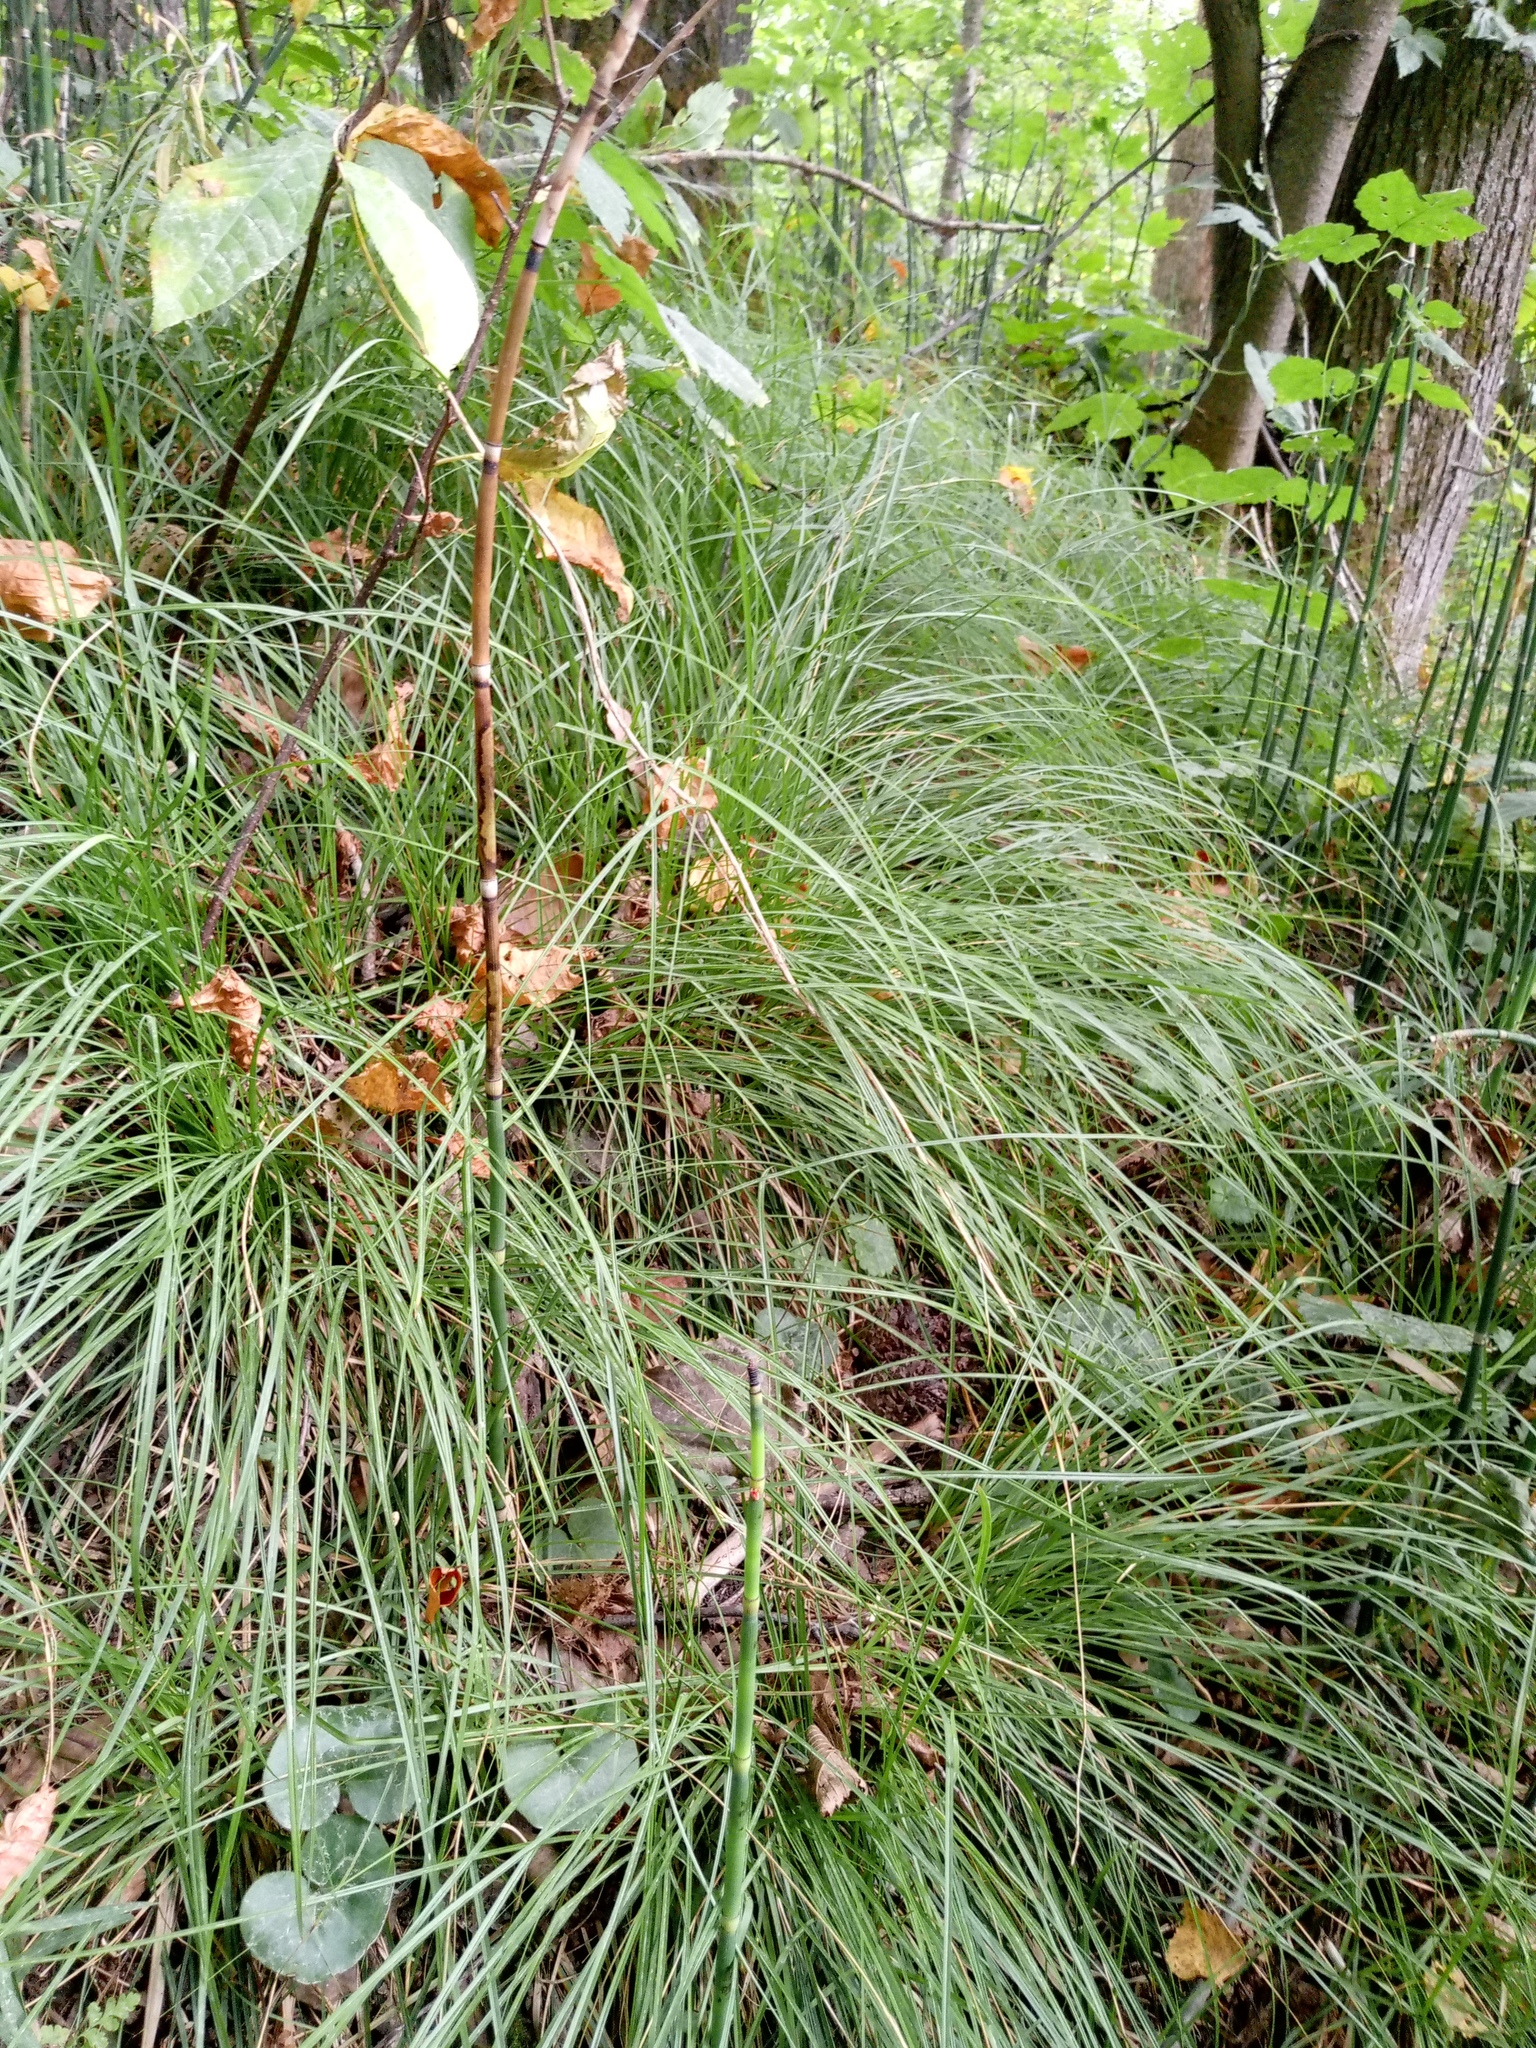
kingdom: Plantae
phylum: Tracheophyta
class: Liliopsida
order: Poales
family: Cyperaceae
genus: Carex
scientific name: Carex rhizina
